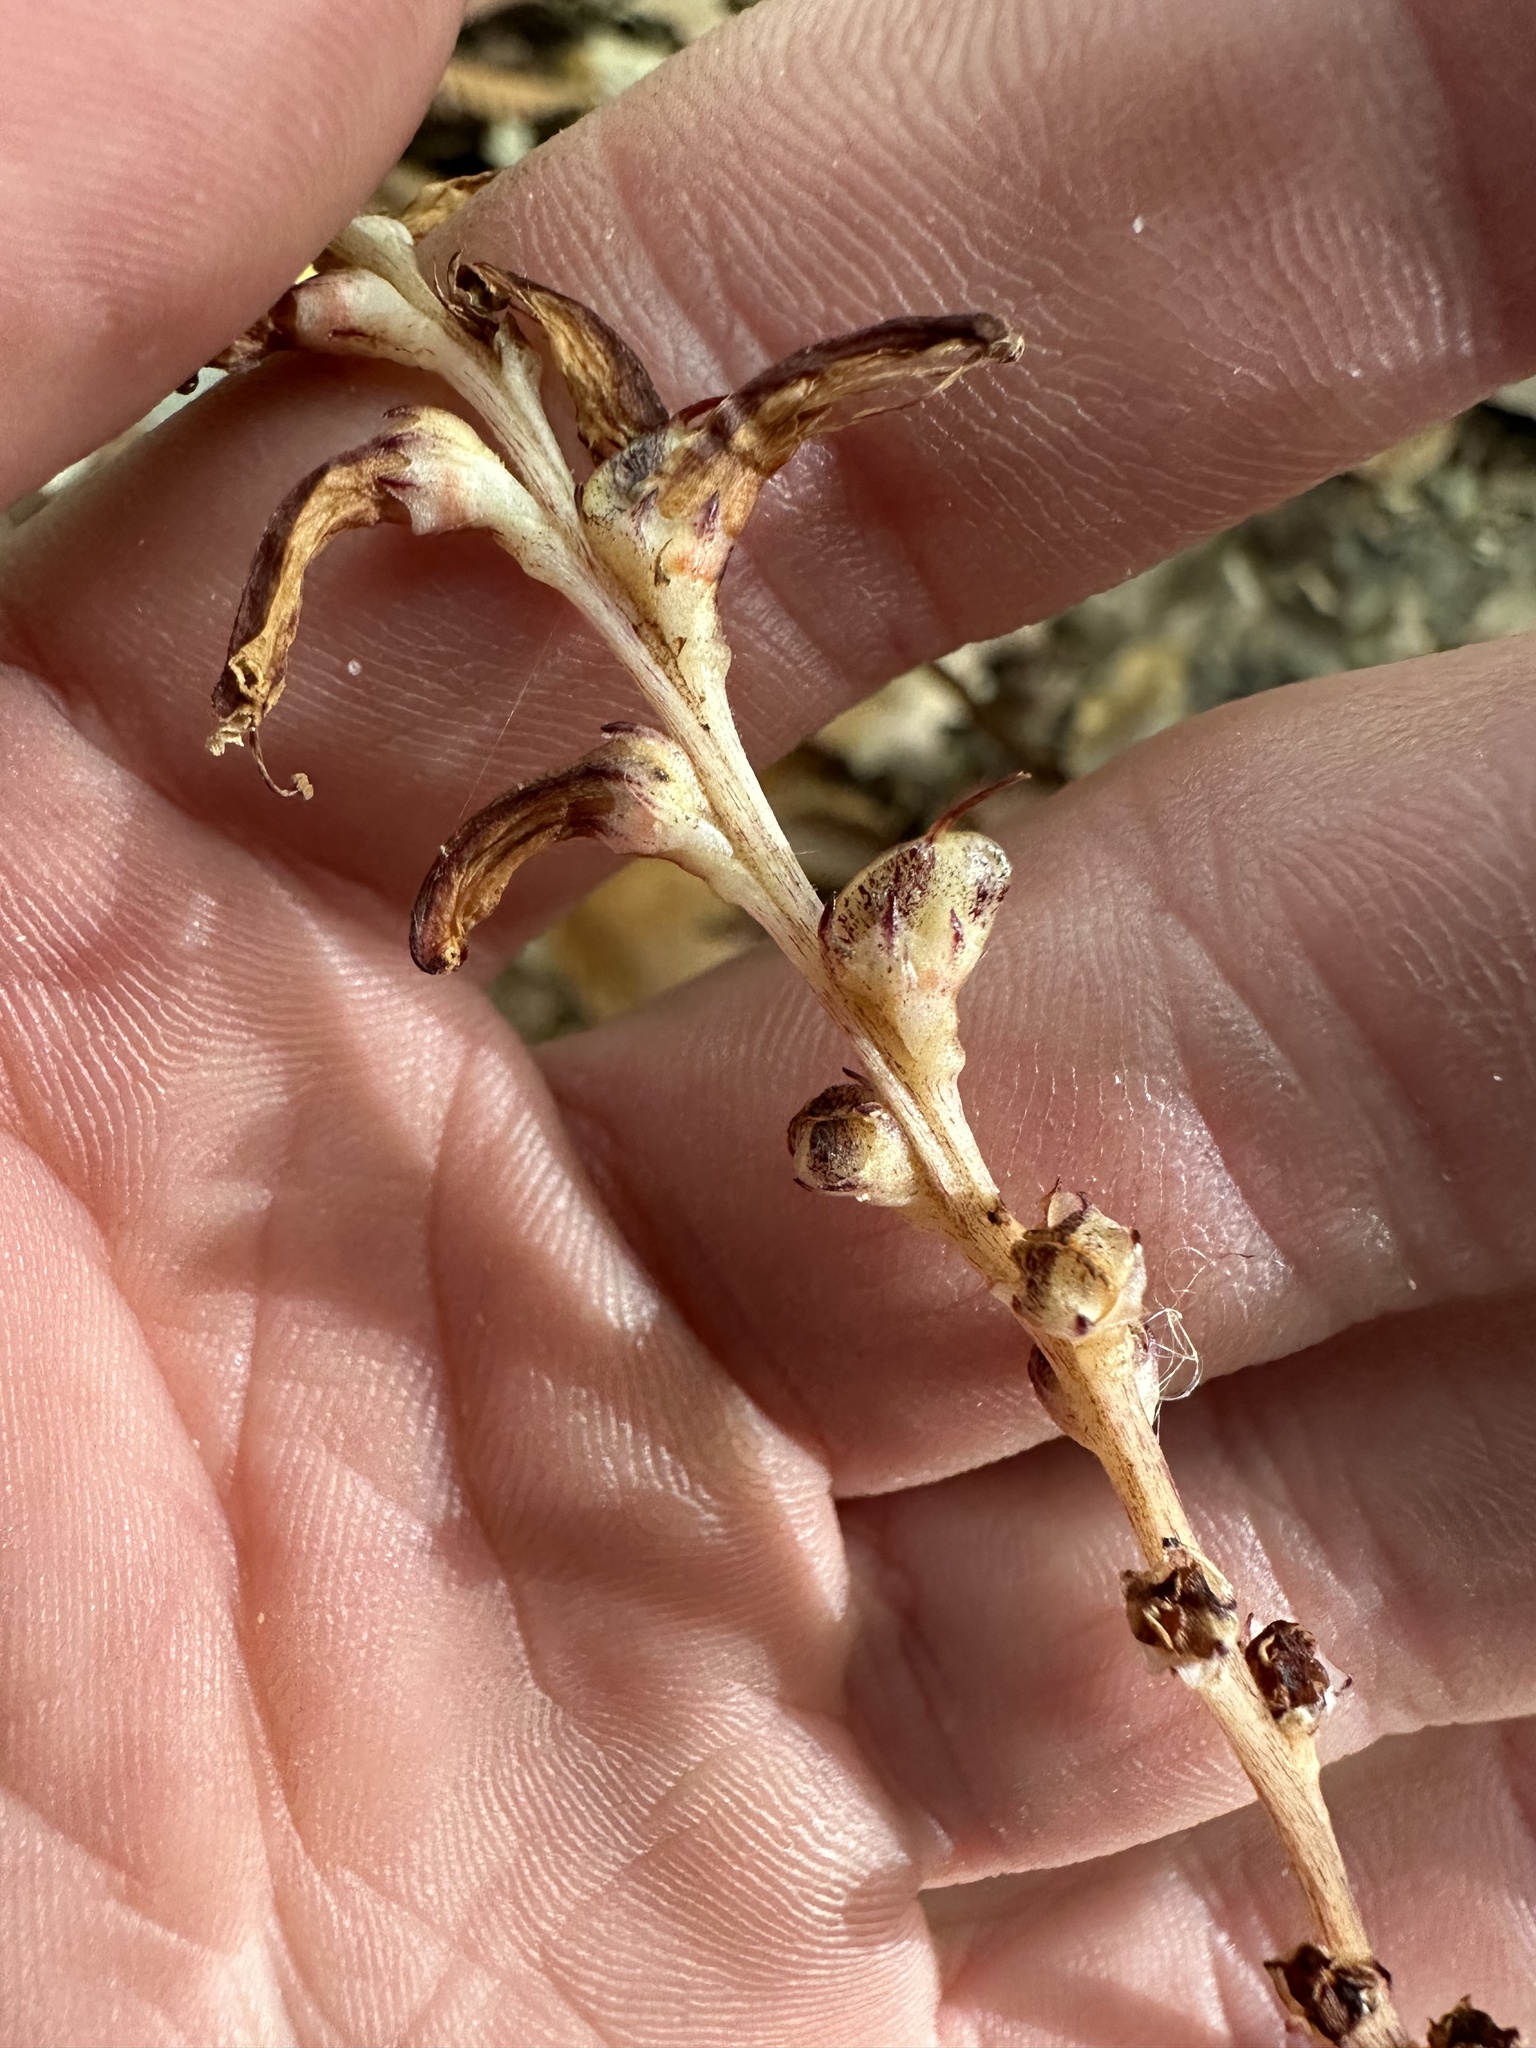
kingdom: Plantae
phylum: Tracheophyta
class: Magnoliopsida
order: Lamiales
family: Orobanchaceae
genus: Epifagus
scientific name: Epifagus virginiana
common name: Beechdrops
